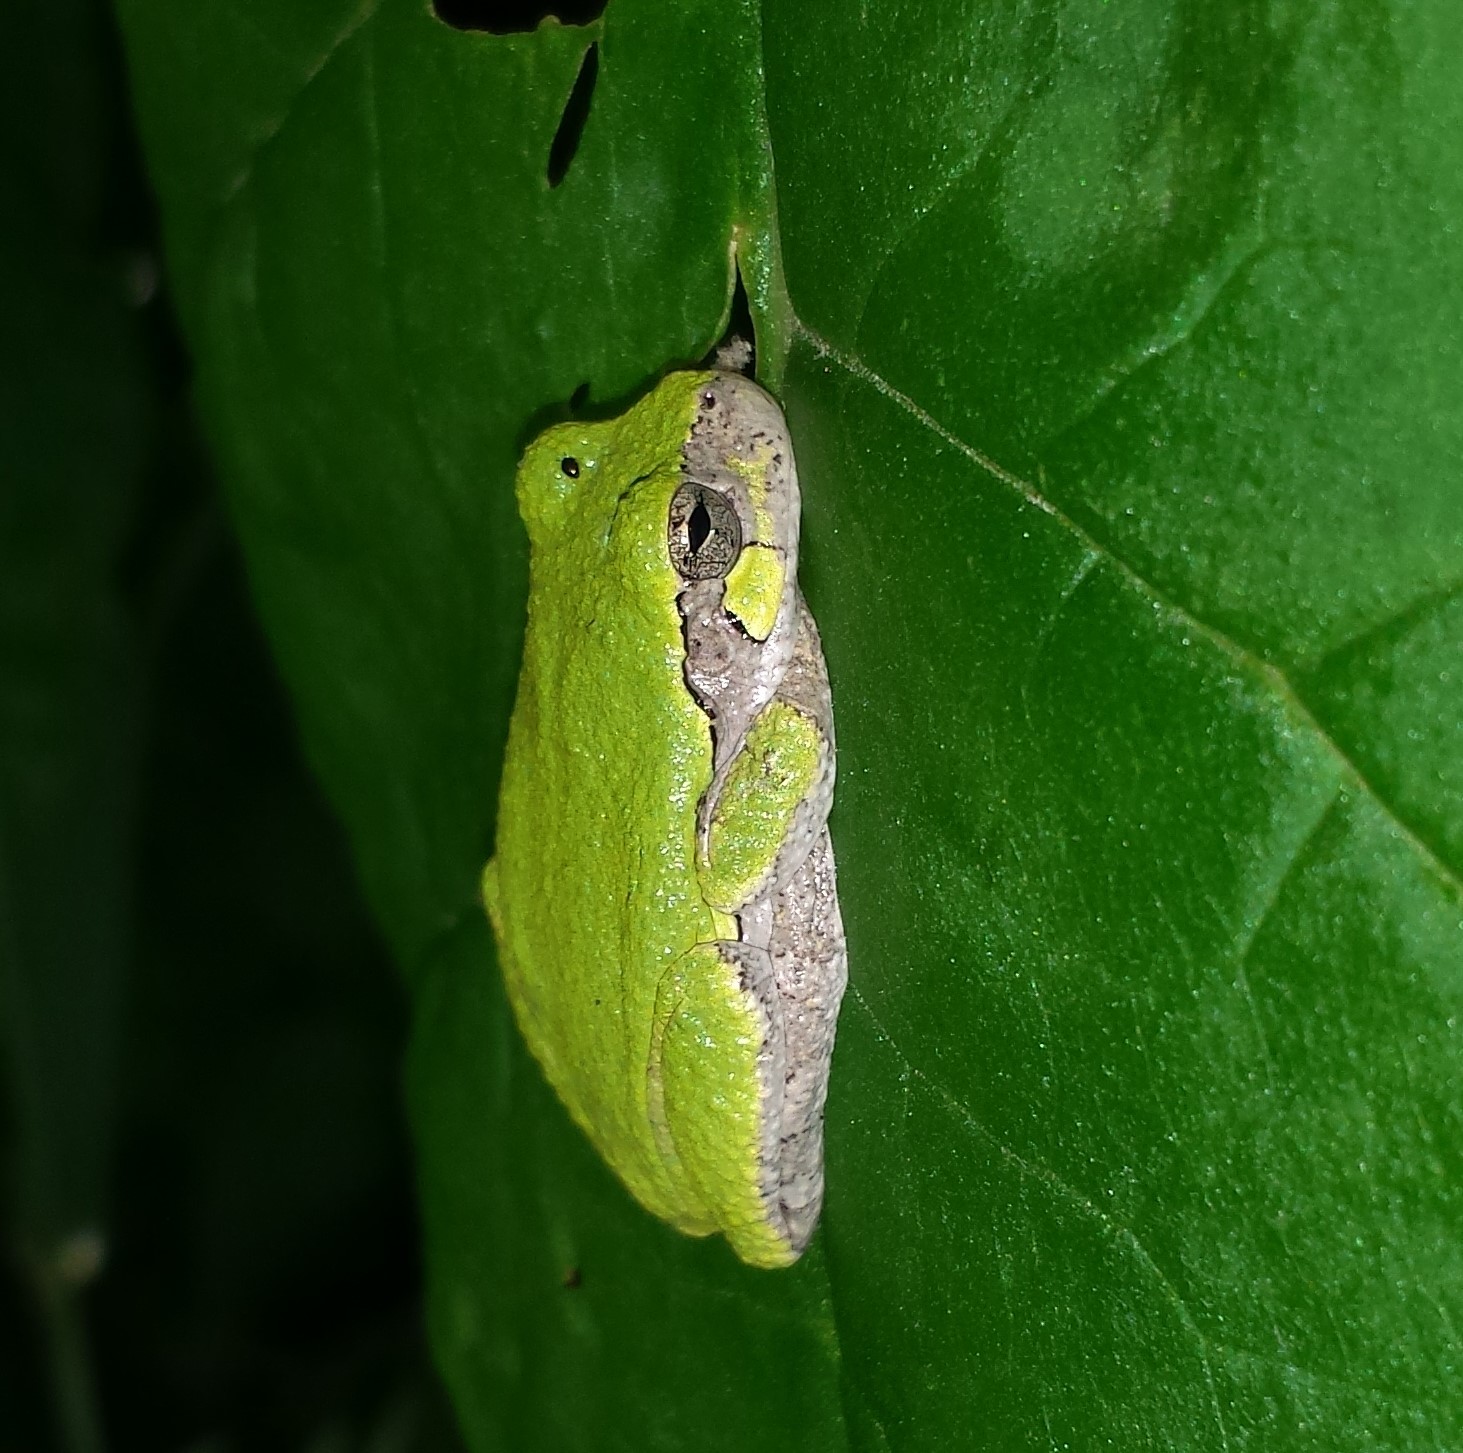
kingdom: Animalia
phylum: Chordata
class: Amphibia
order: Anura
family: Hylidae
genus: Hyla
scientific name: Hyla
